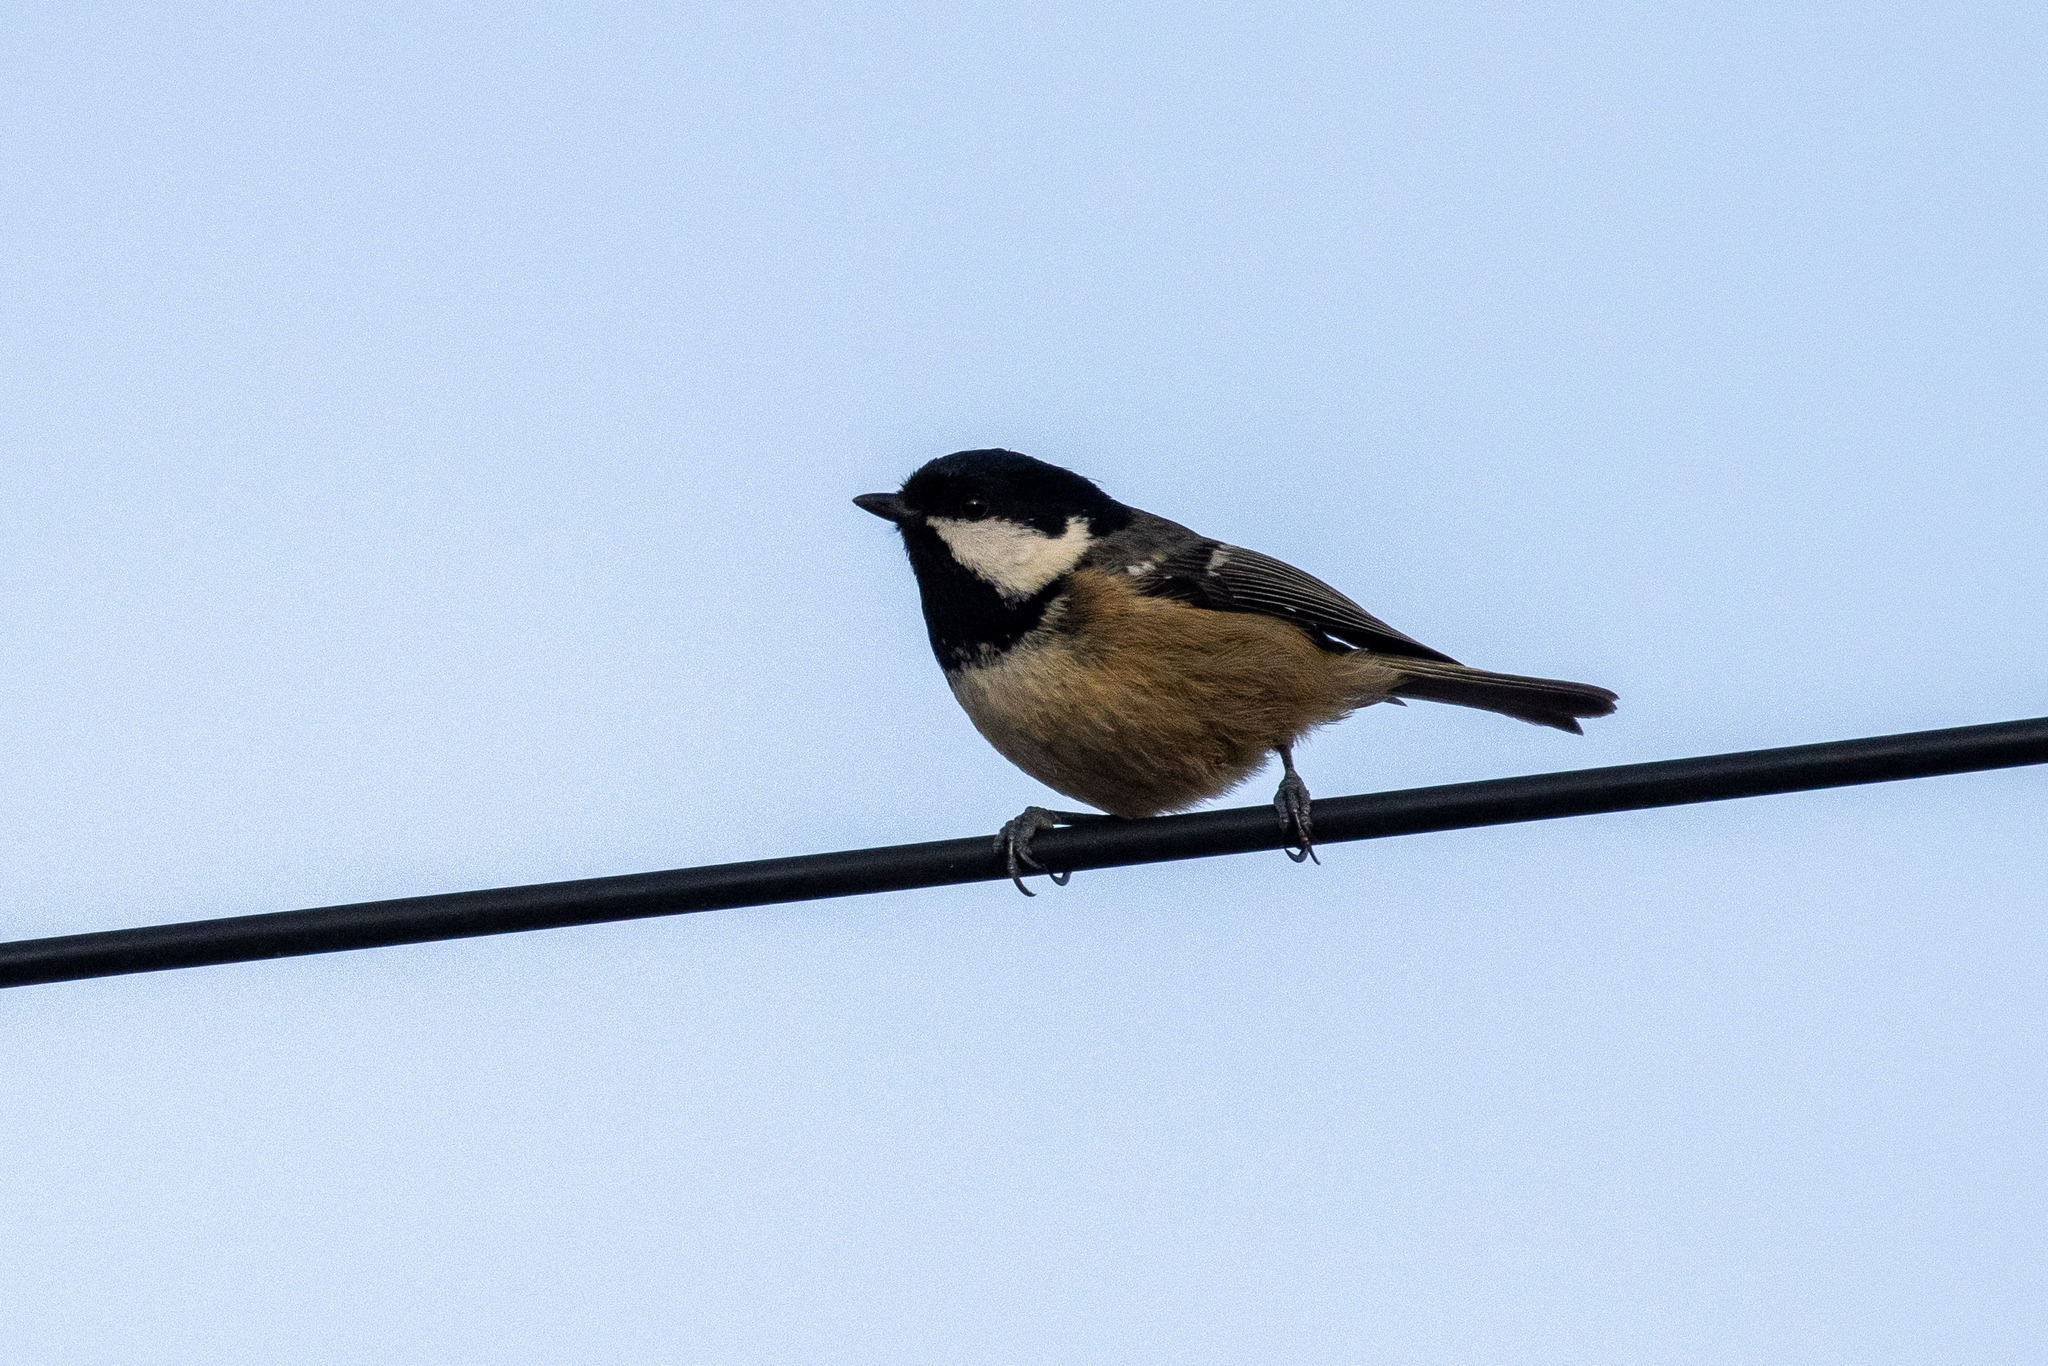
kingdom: Animalia
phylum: Chordata
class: Aves
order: Passeriformes
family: Paridae
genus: Periparus
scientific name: Periparus ater
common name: Coal tit
